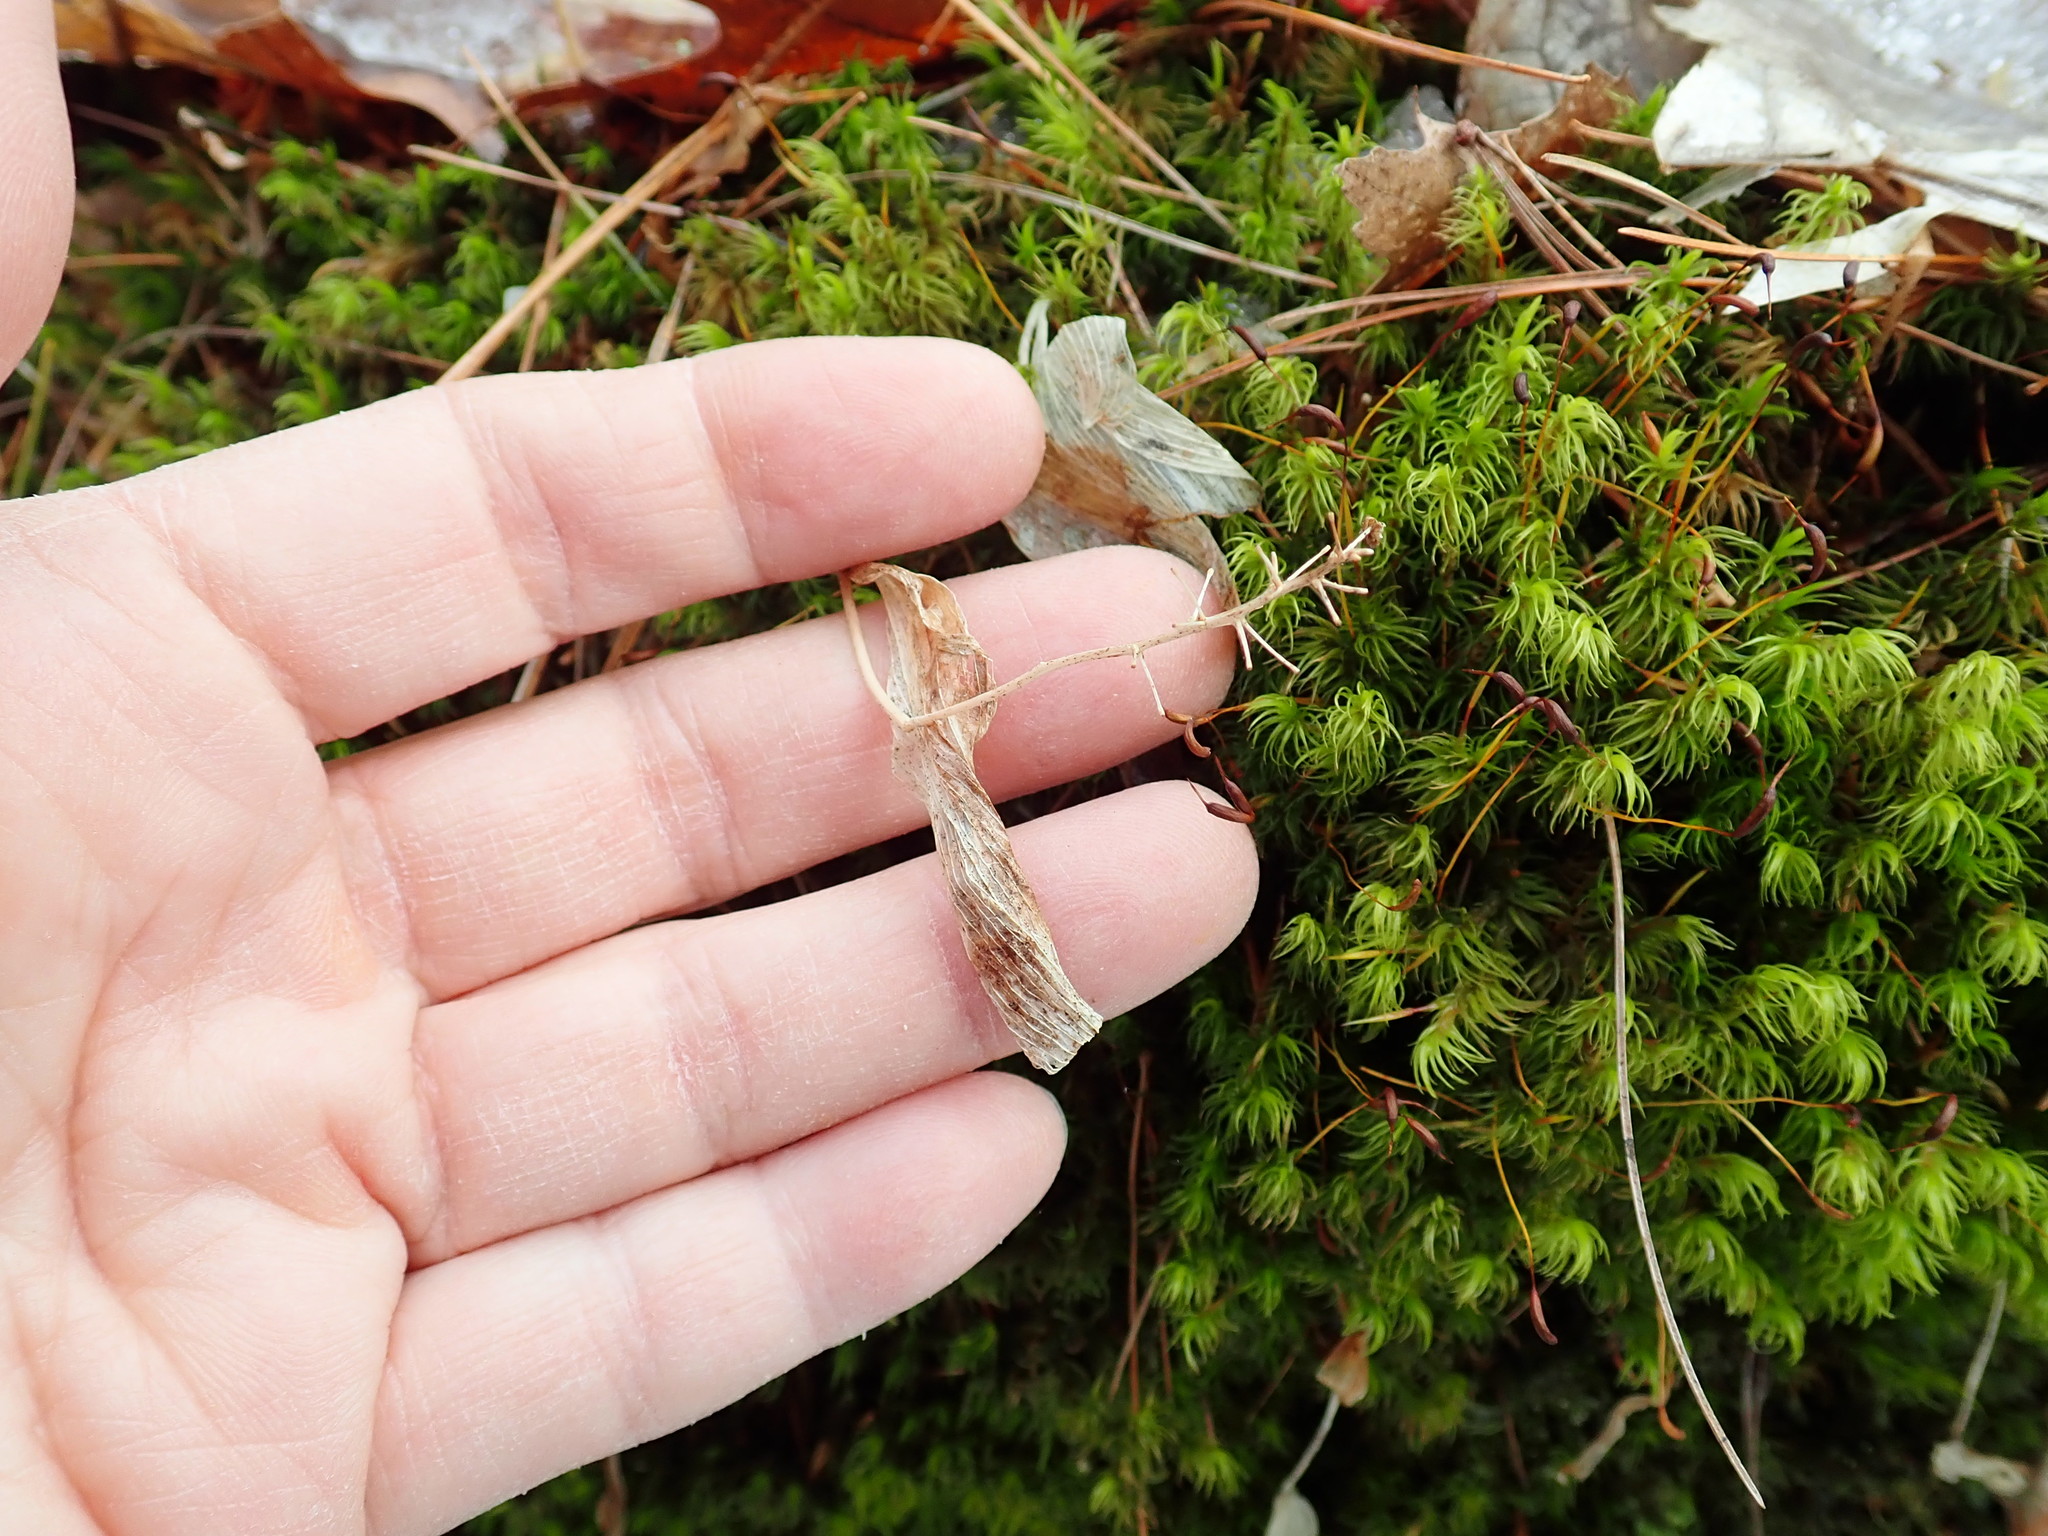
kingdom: Plantae
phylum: Tracheophyta
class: Liliopsida
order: Asparagales
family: Asparagaceae
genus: Maianthemum
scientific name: Maianthemum canadense
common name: False lily-of-the-valley
